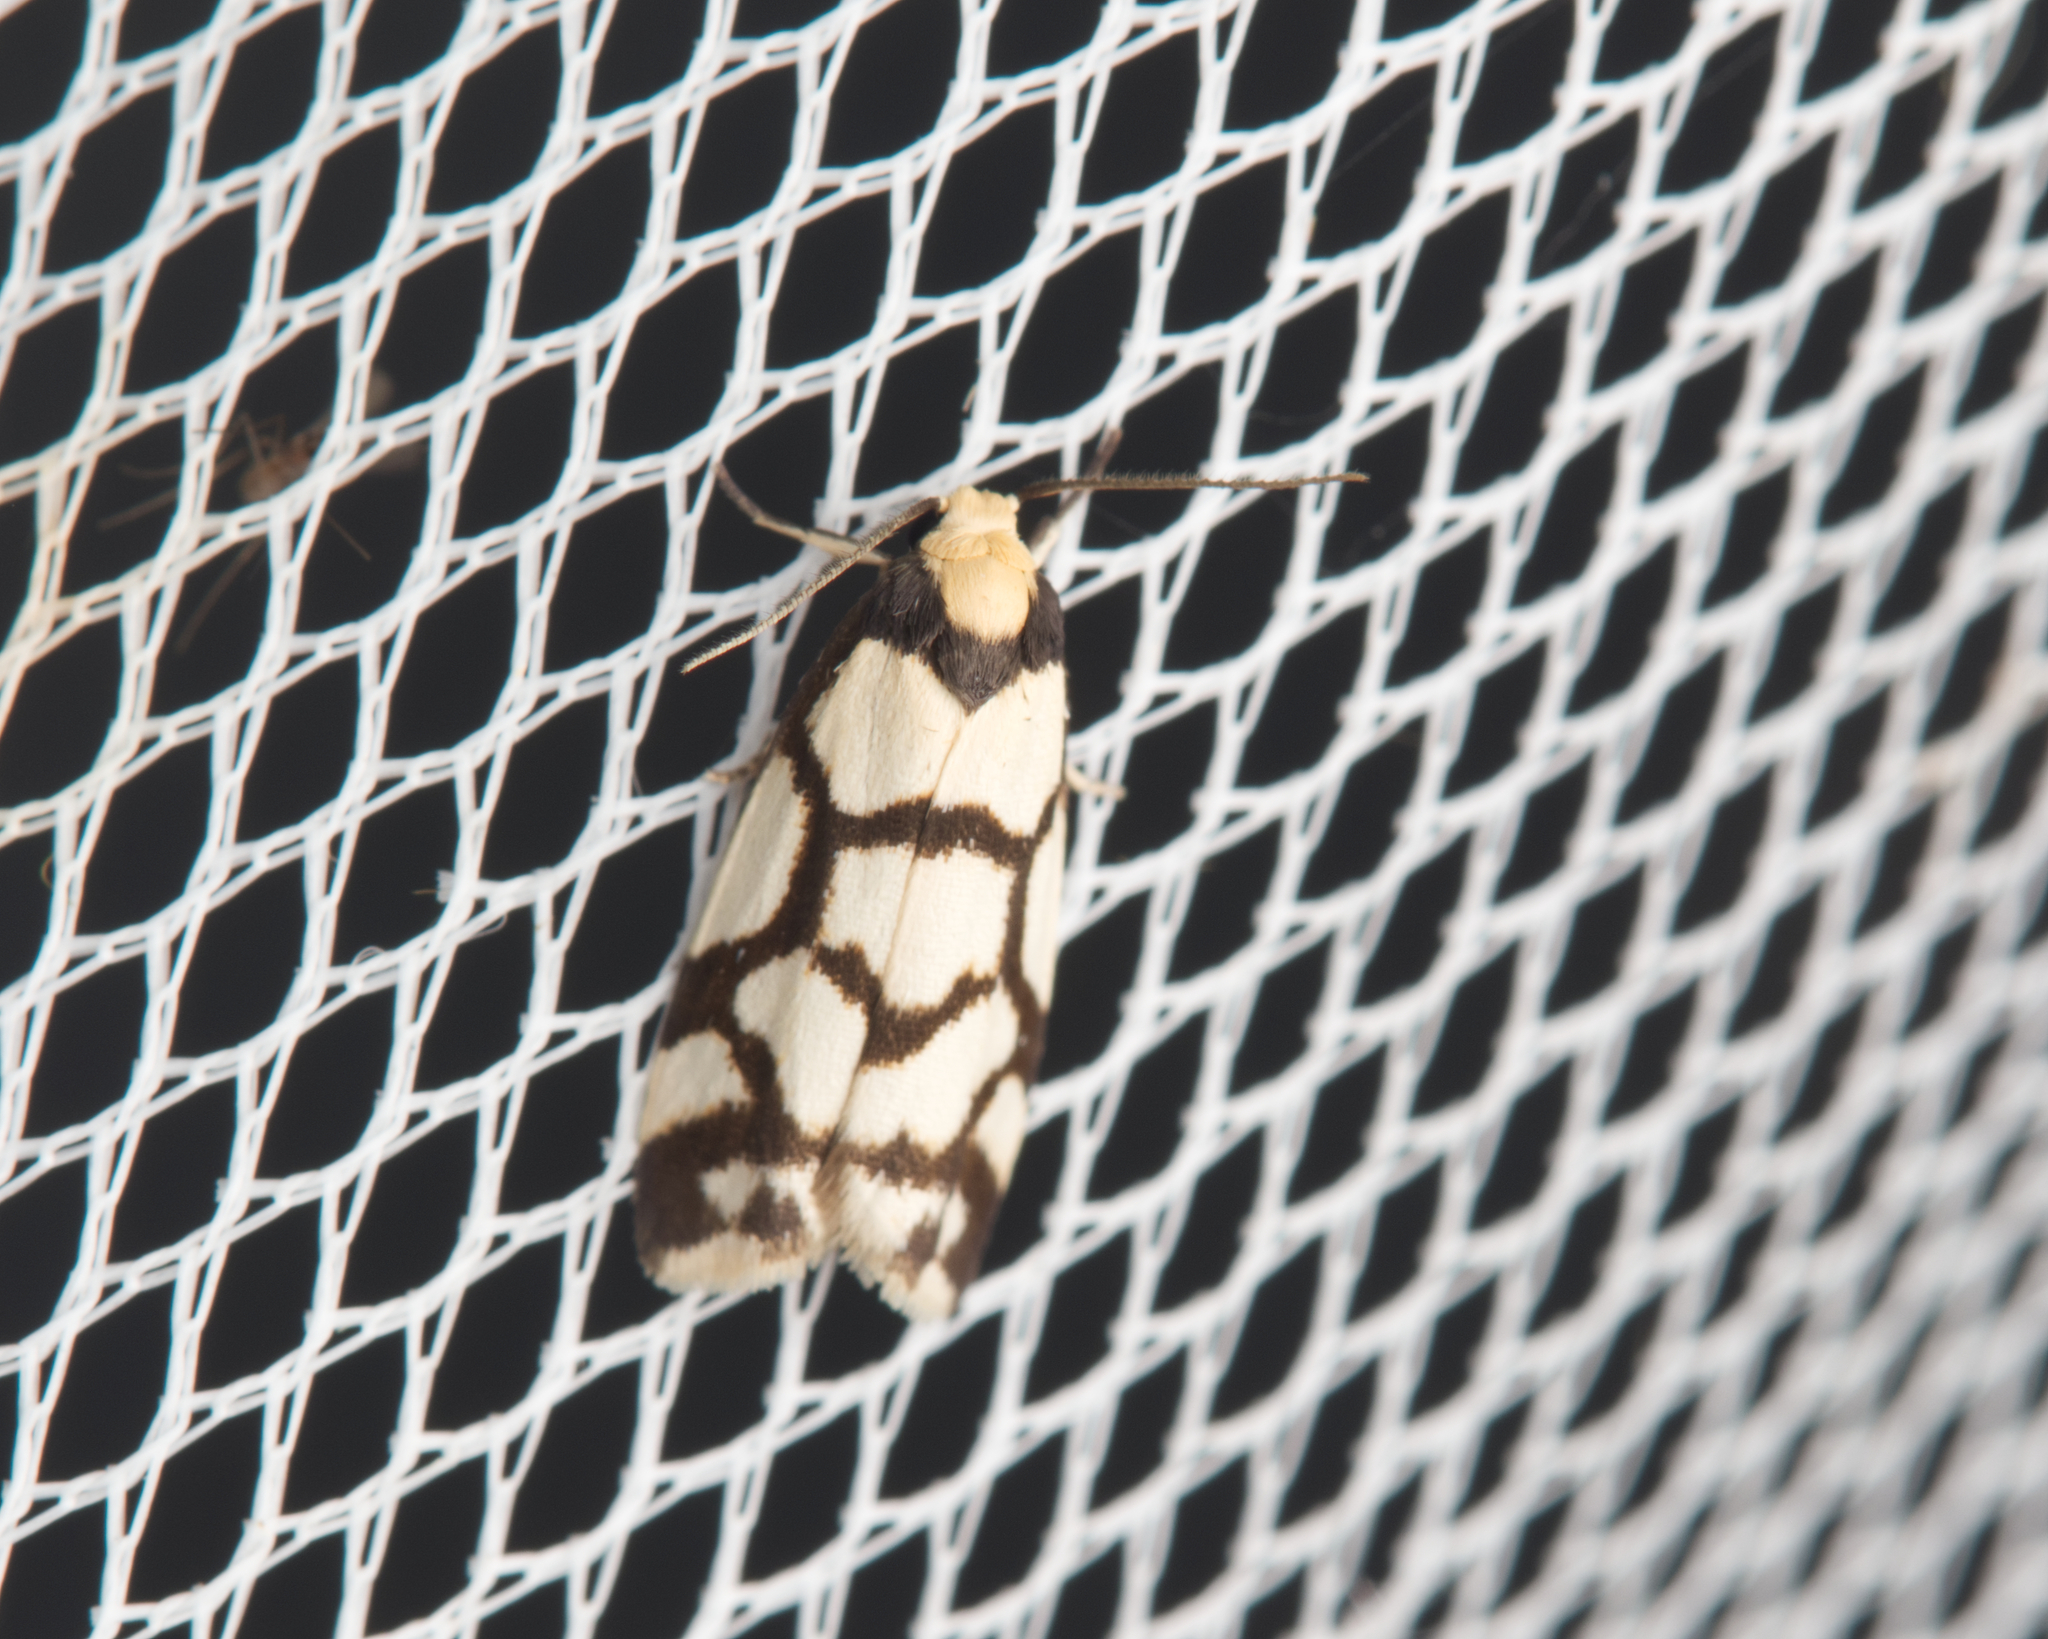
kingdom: Animalia
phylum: Arthropoda
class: Insecta
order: Lepidoptera
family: Erebidae
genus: Scaptesyle
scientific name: Scaptesyle dichotoma
